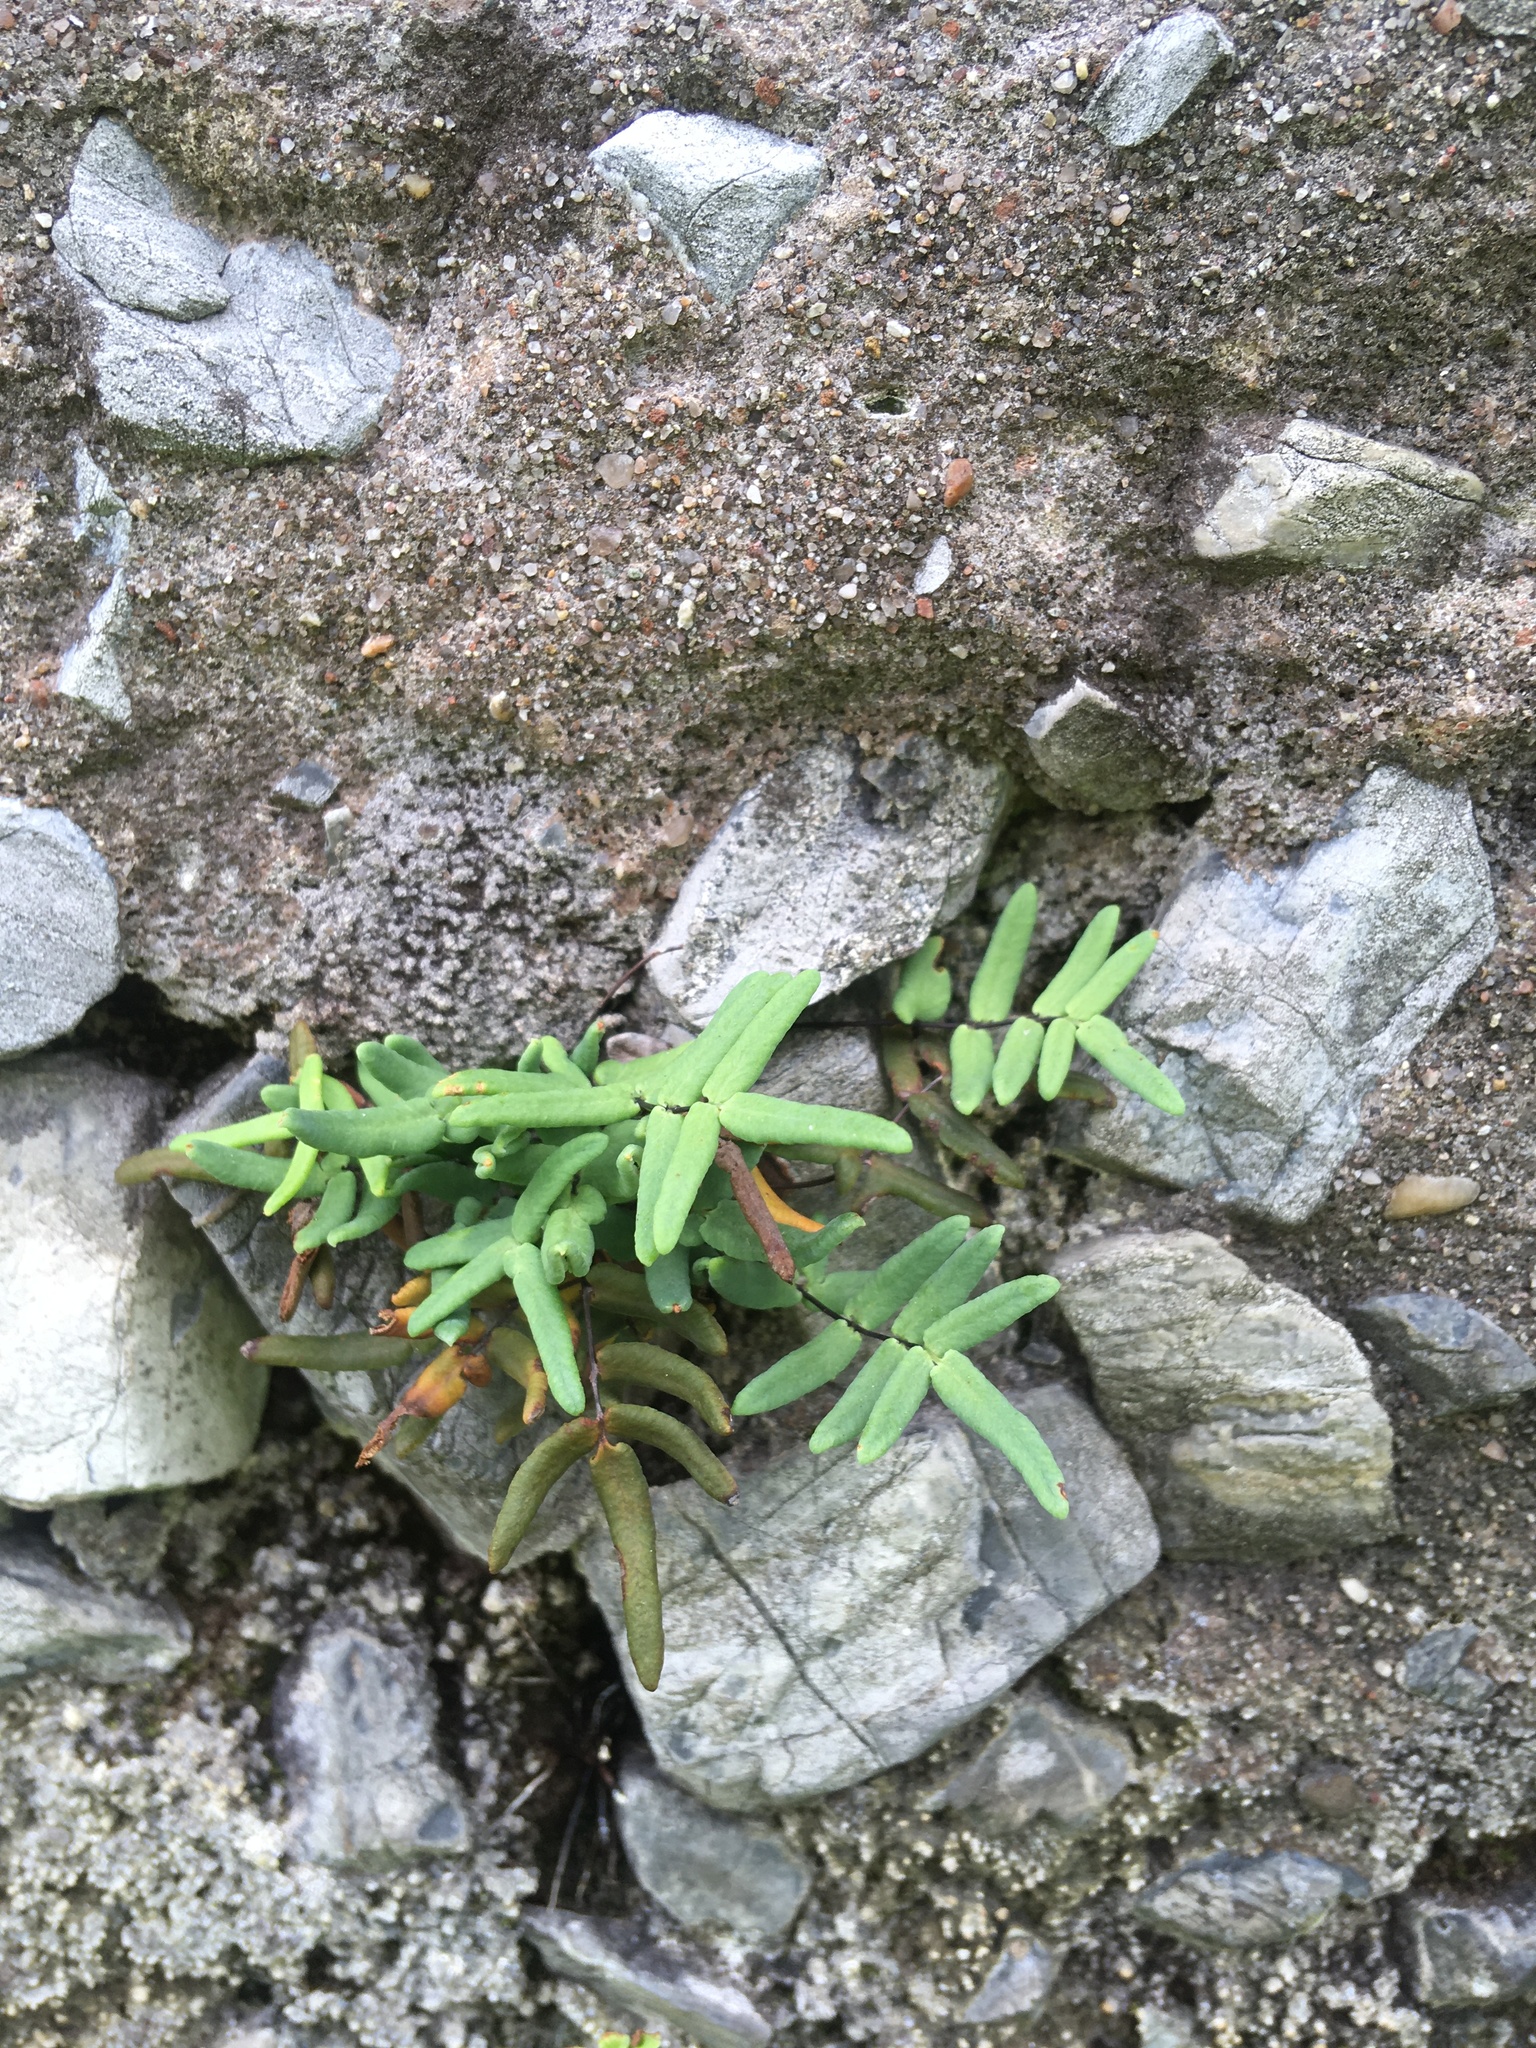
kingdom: Plantae
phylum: Tracheophyta
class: Polypodiopsida
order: Polypodiales
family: Pteridaceae
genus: Pellaea
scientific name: Pellaea glabella
